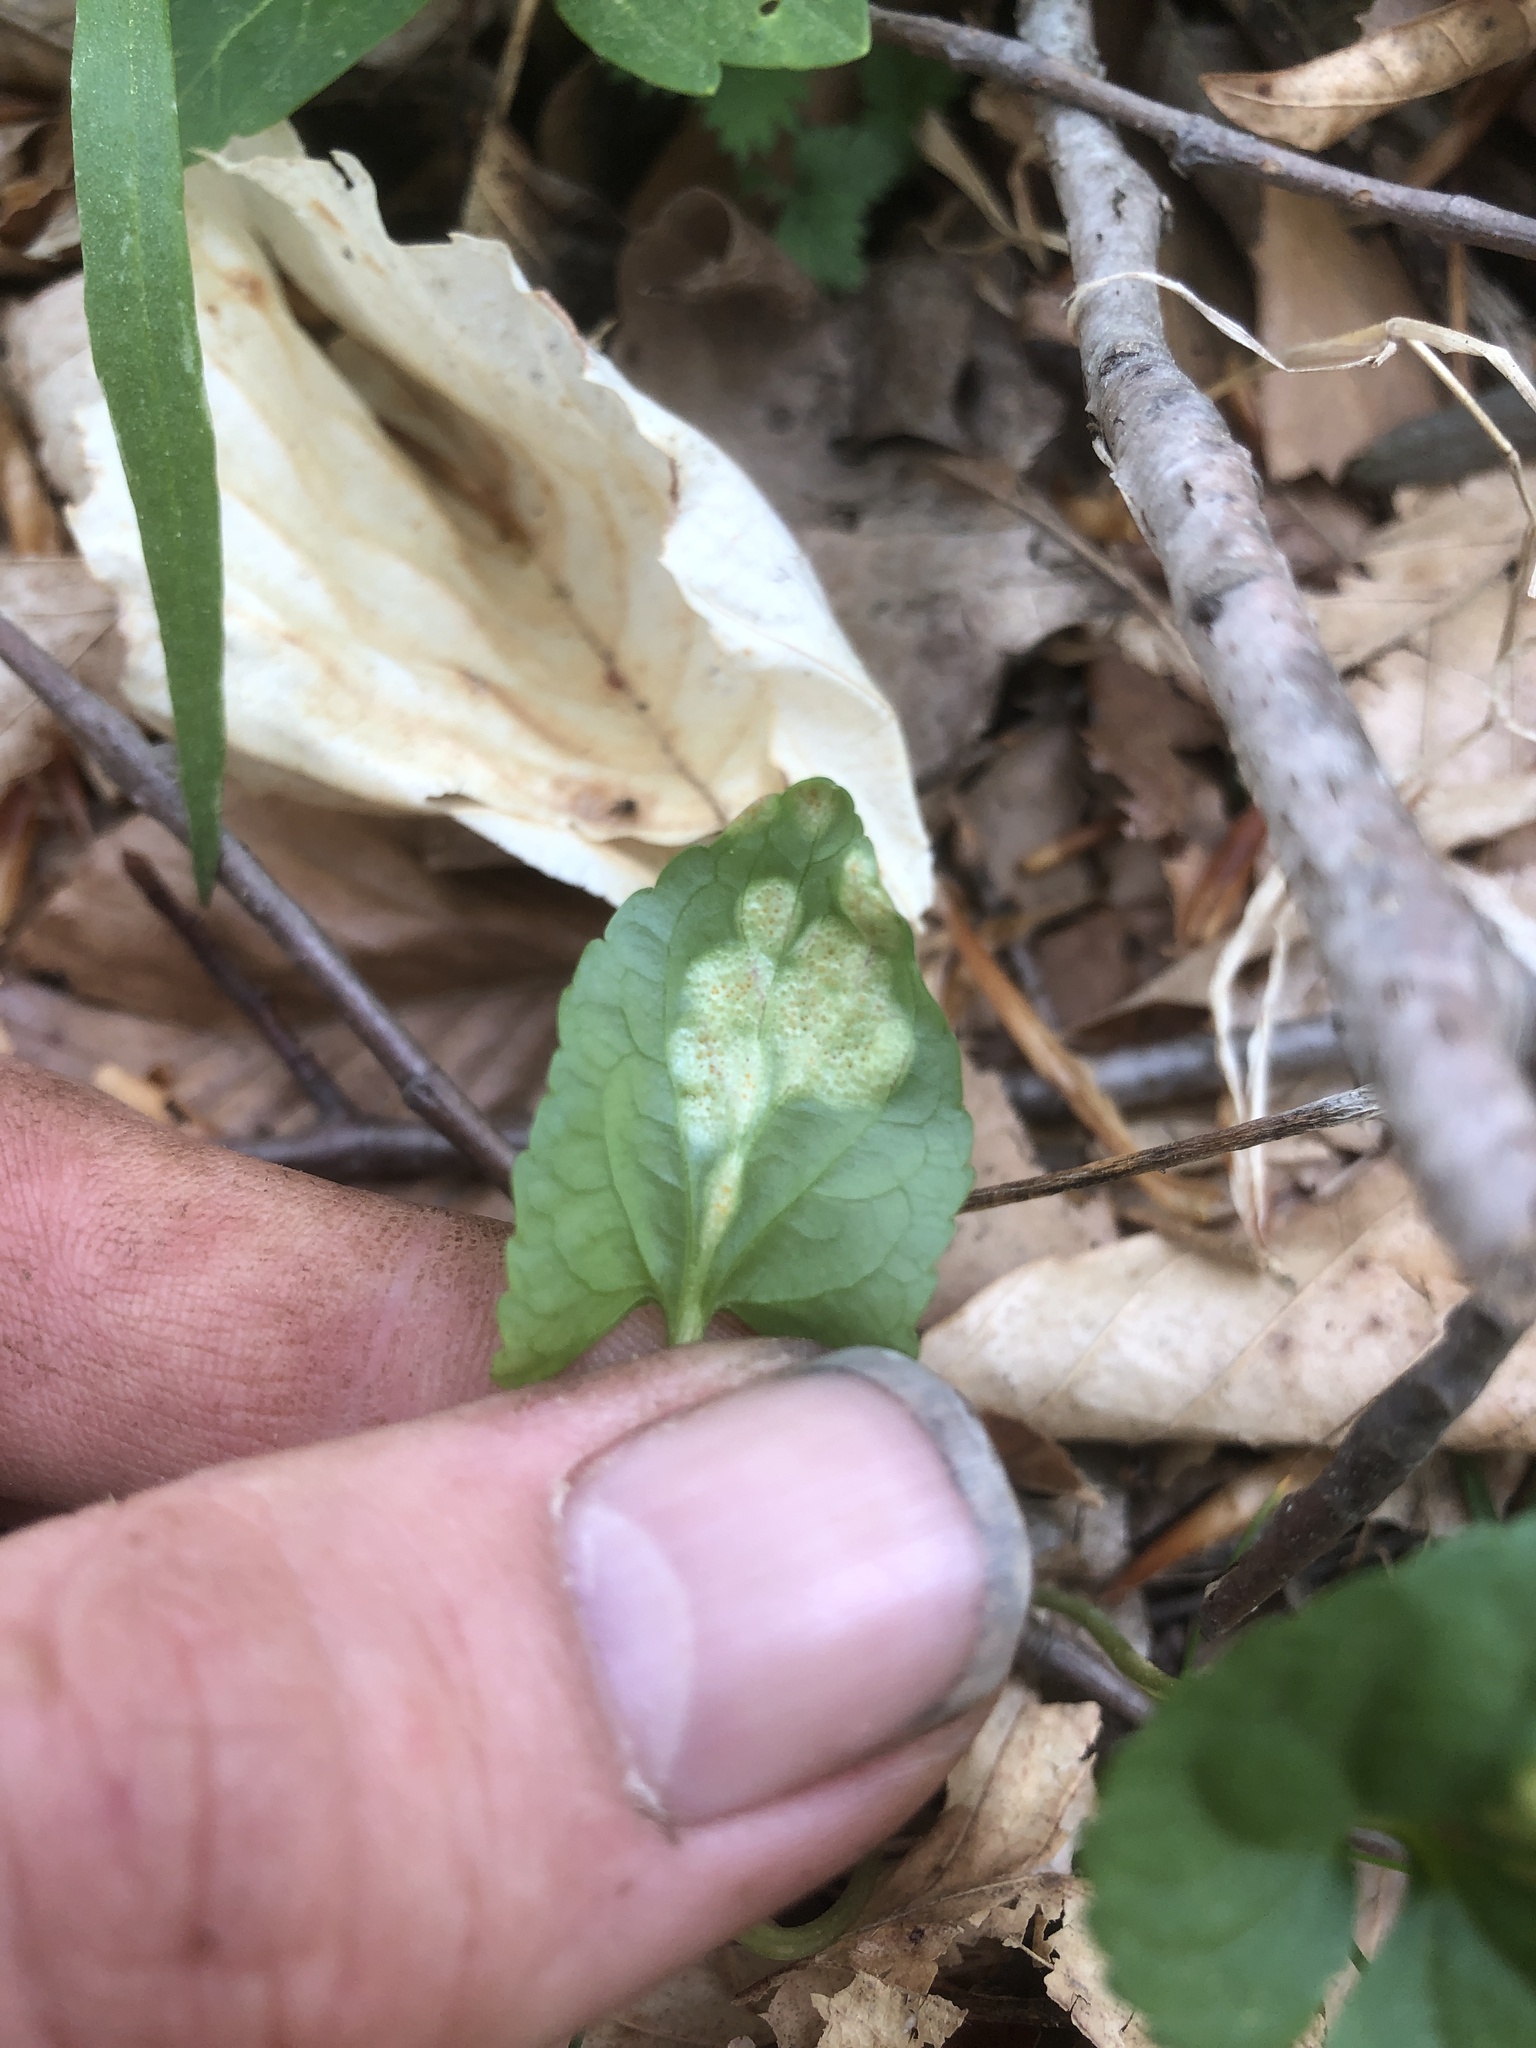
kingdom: Fungi
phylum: Basidiomycota
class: Pucciniomycetes
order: Pucciniales
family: Pucciniaceae
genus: Puccinia
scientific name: Puccinia violae
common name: Violet rust
